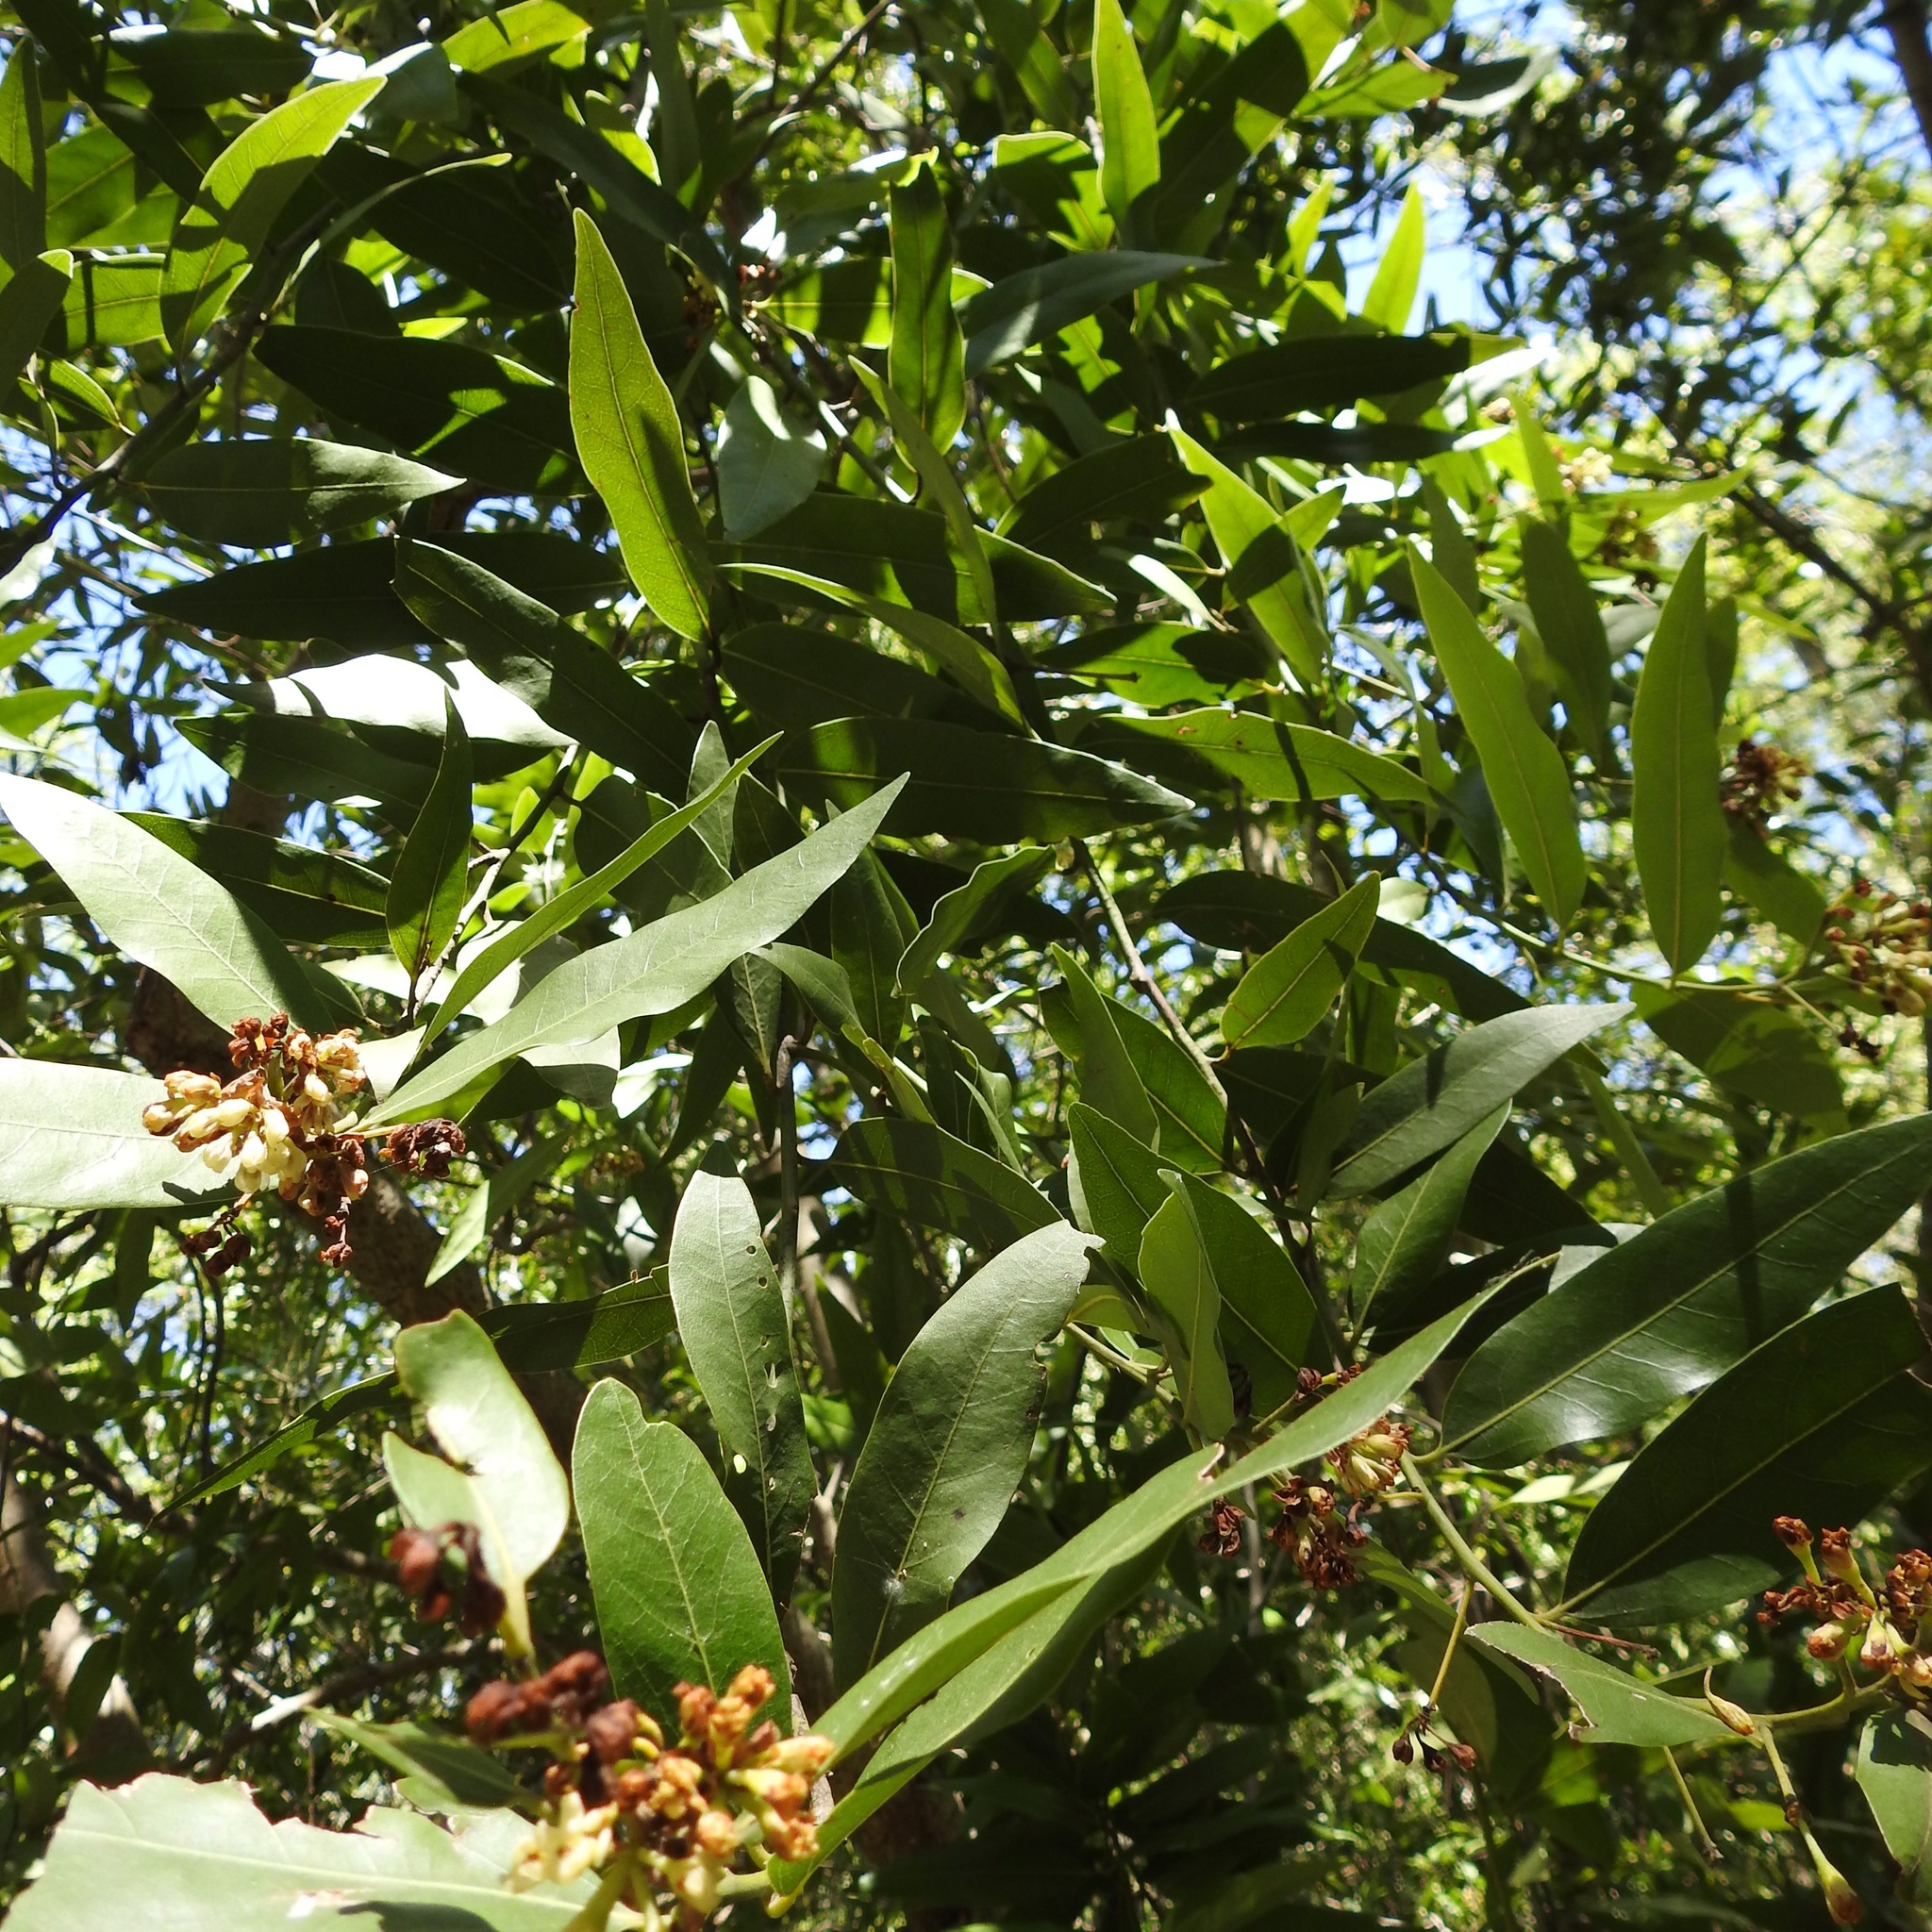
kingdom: Plantae
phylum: Tracheophyta
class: Magnoliopsida
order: Laurales
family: Lauraceae
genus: Umbellularia
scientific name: Umbellularia californica
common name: California bay
